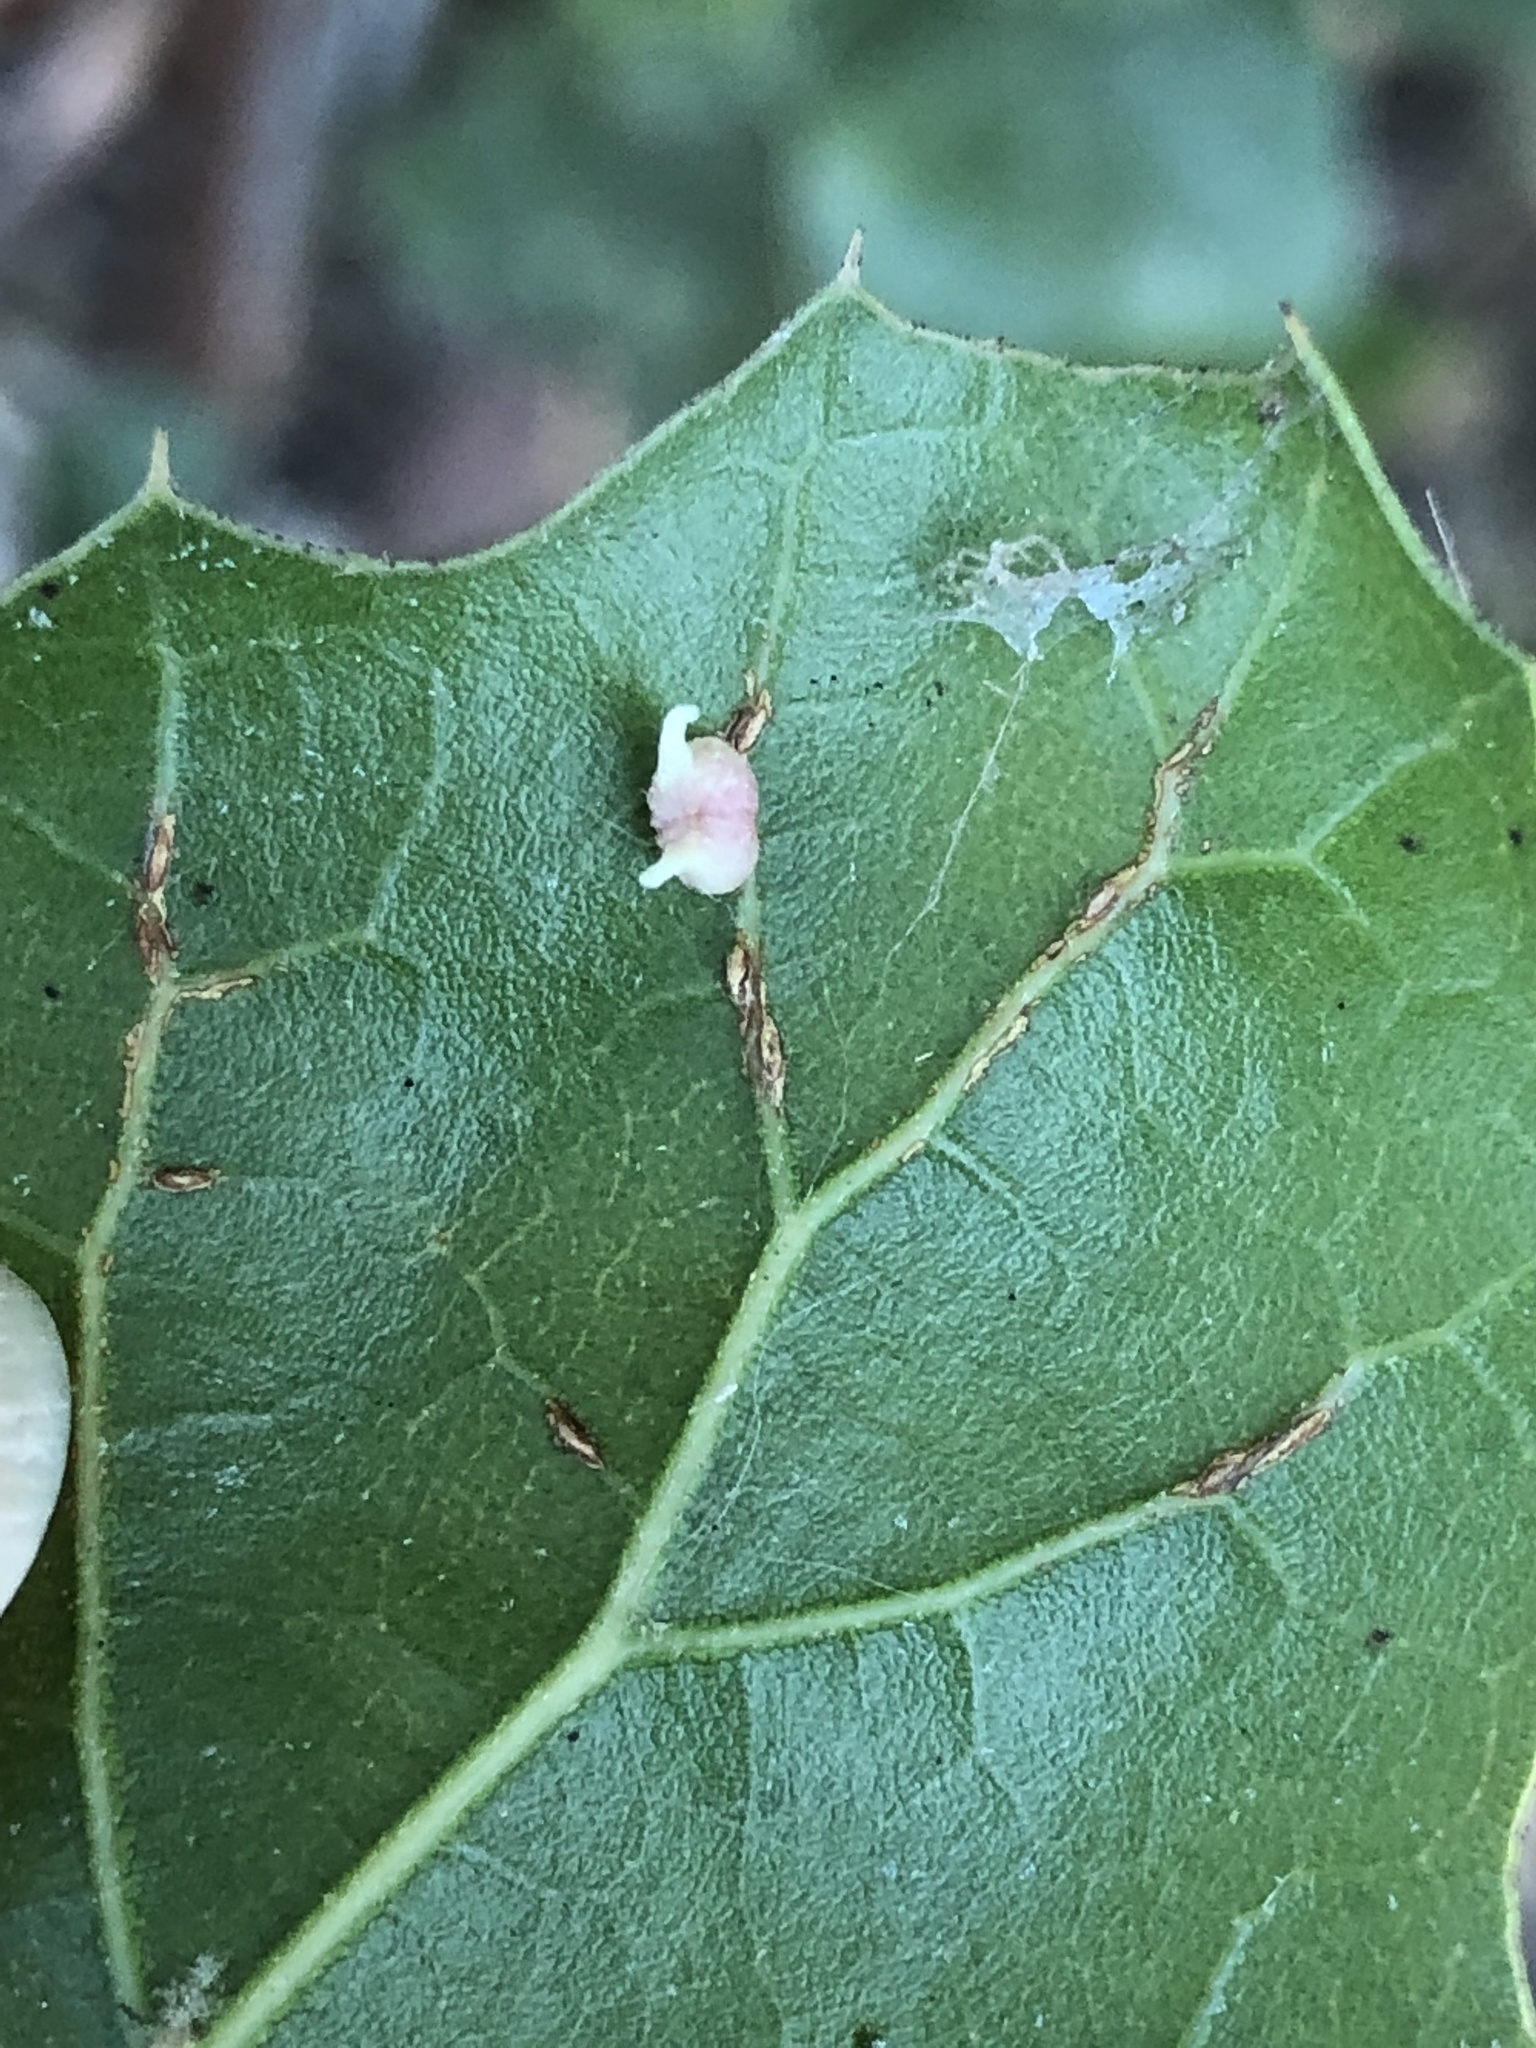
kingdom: Animalia
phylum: Arthropoda
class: Insecta
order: Hymenoptera
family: Cynipidae
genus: Dryocosmus
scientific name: Dryocosmus
